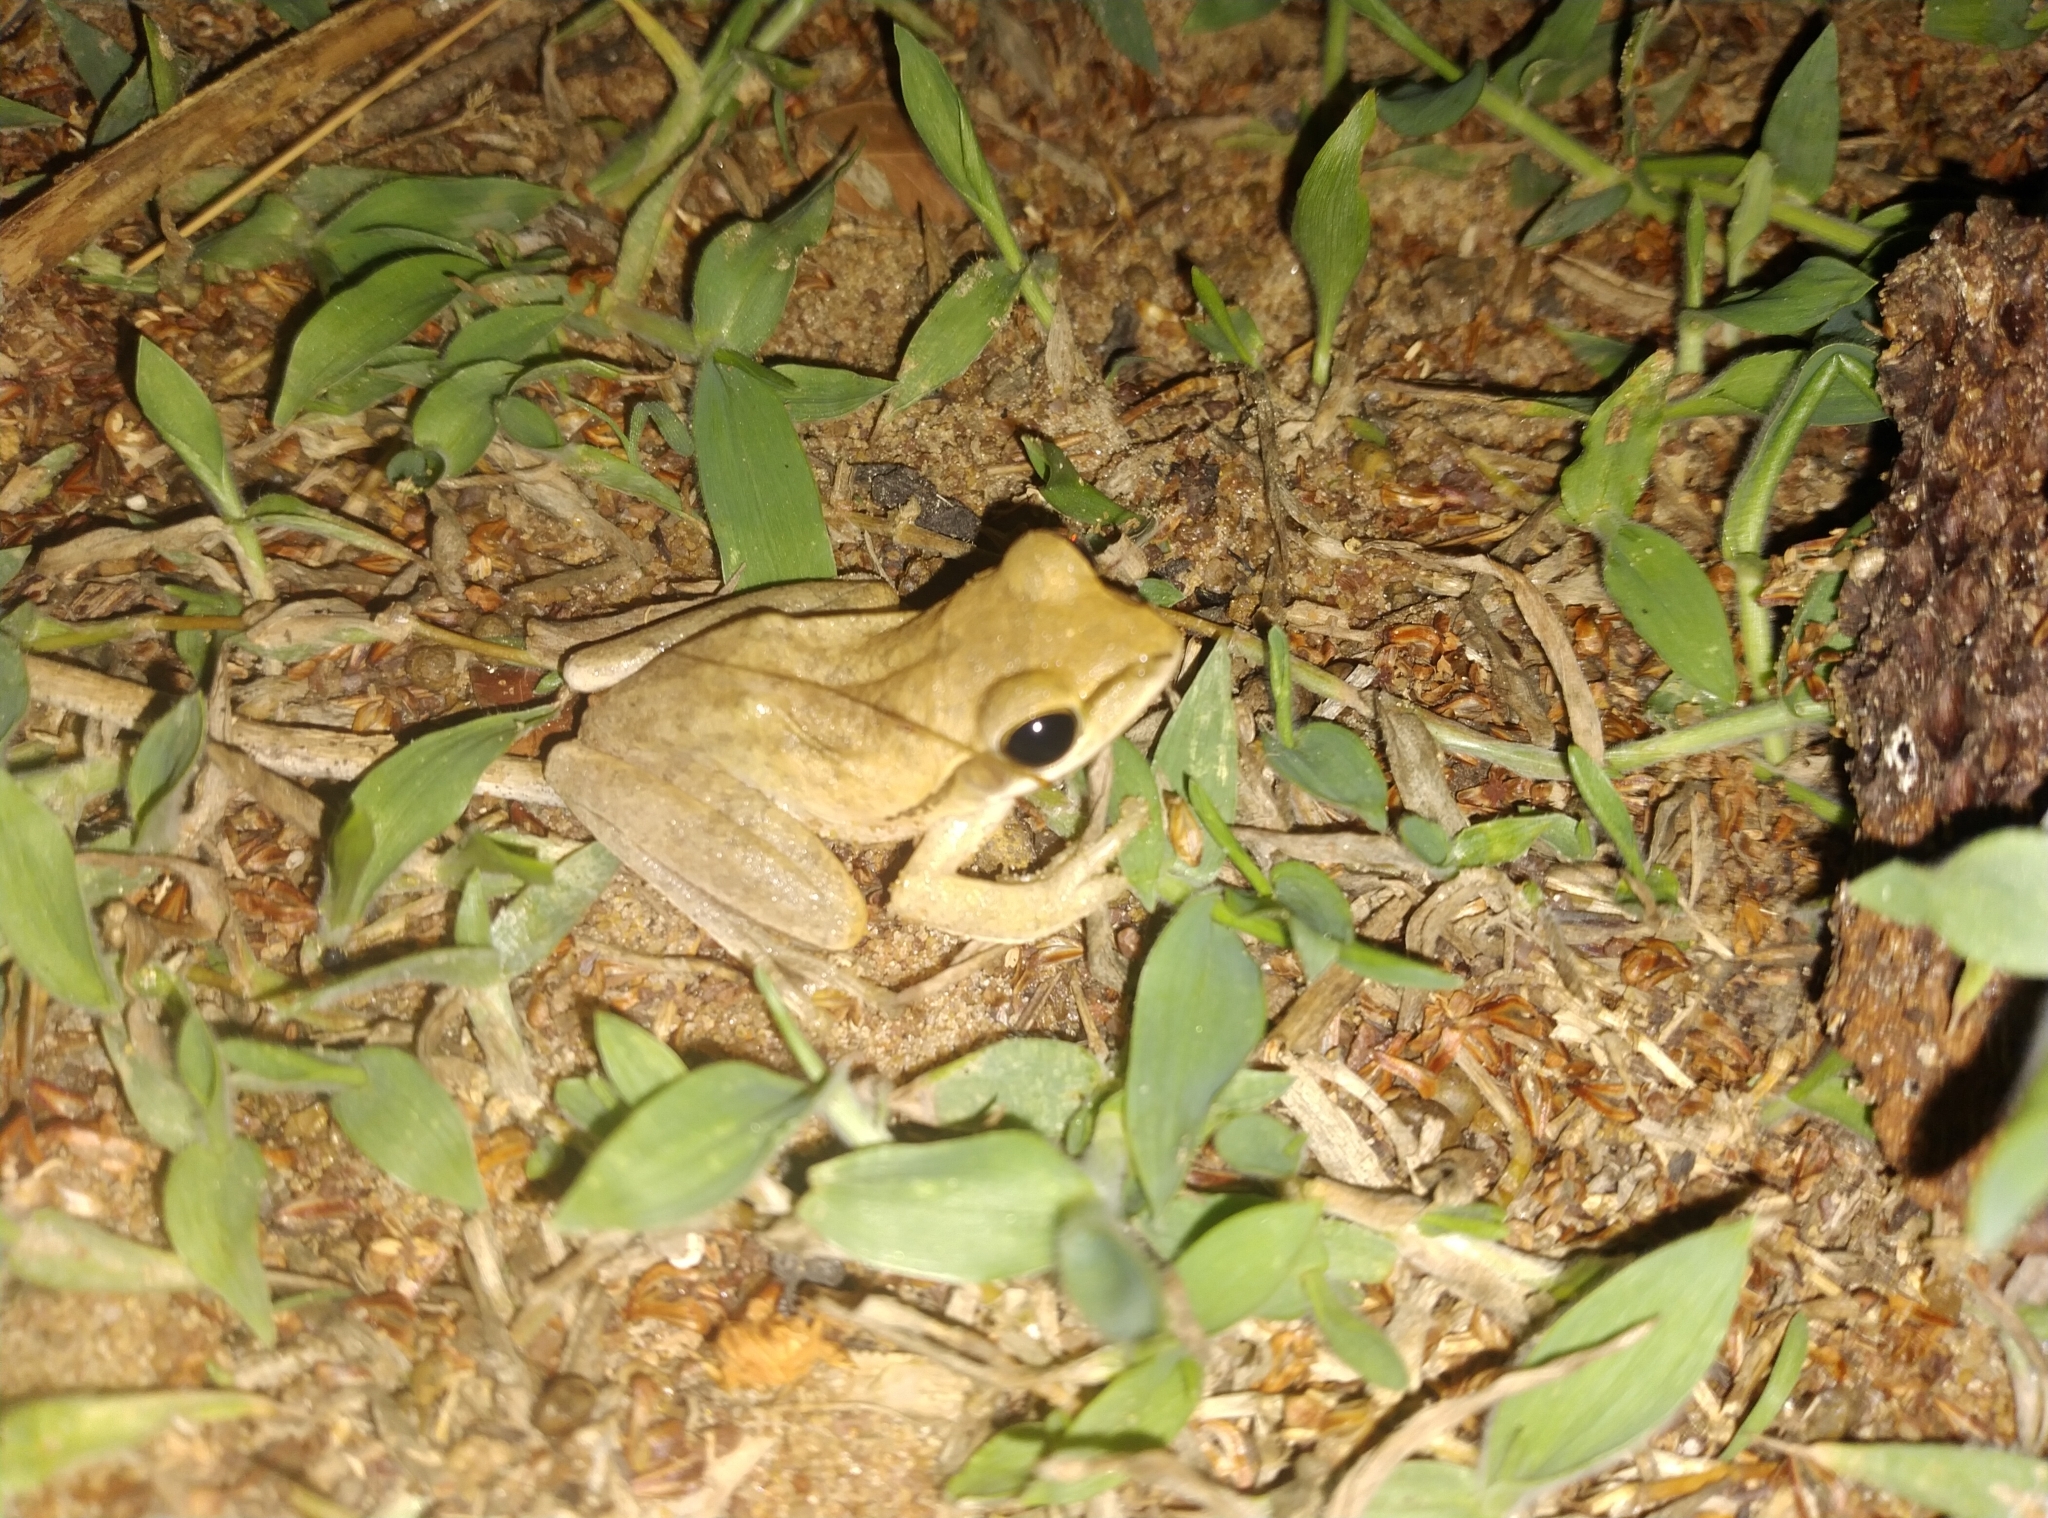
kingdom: Animalia
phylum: Chordata
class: Amphibia
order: Anura
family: Rhacophoridae
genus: Polypedates
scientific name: Polypedates maculatus
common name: Himalayan tree frog
